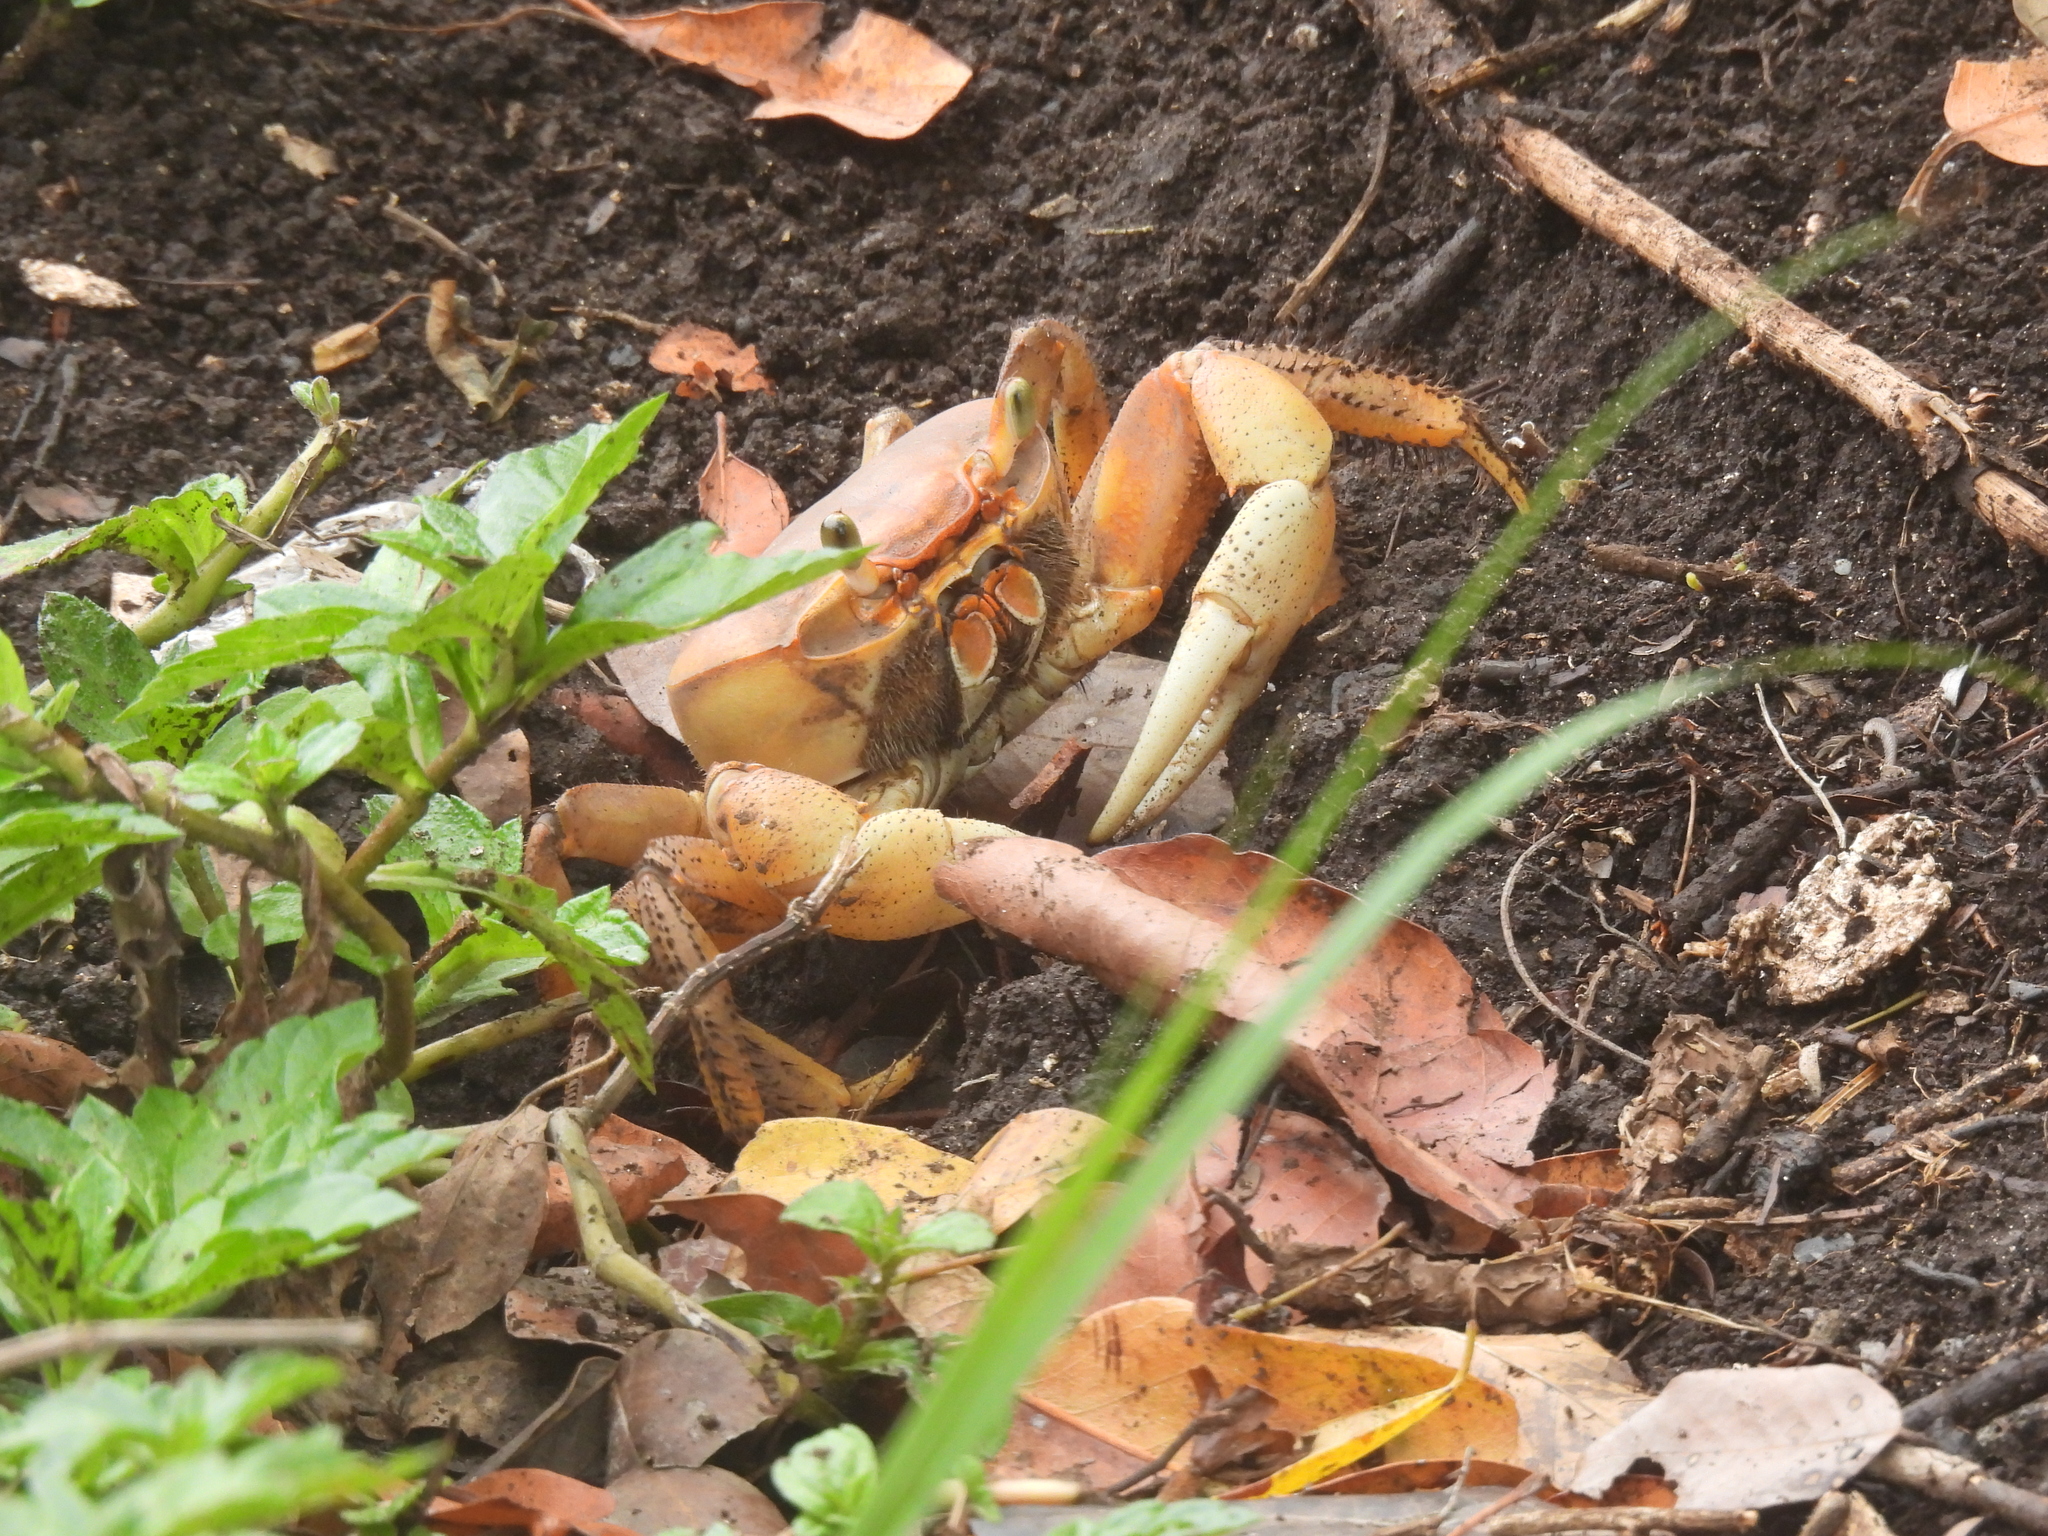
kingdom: Animalia
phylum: Arthropoda
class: Malacostraca
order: Decapoda
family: Gecarcinidae
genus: Cardisoma
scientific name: Cardisoma guanhumi
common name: Great land crab
